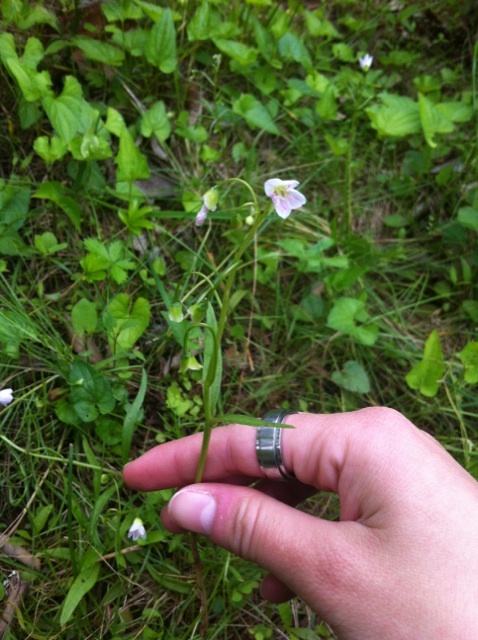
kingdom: Plantae
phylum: Tracheophyta
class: Magnoliopsida
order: Caryophyllales
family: Montiaceae
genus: Claytonia
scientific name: Claytonia virginica
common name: Virginia springbeauty
